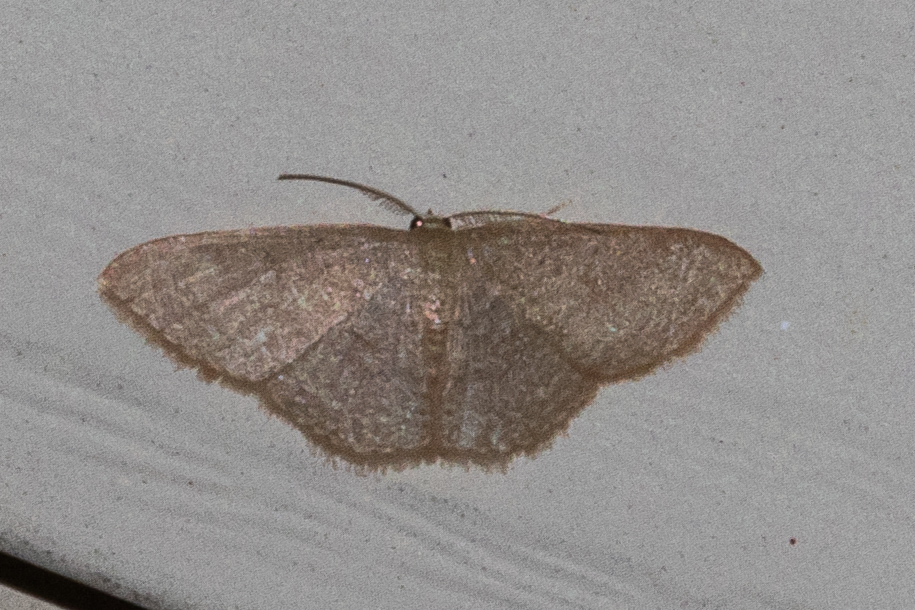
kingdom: Animalia
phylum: Arthropoda
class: Insecta
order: Lepidoptera
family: Geometridae
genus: Pleuroprucha
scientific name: Pleuroprucha insulsaria
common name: Common tan wave
